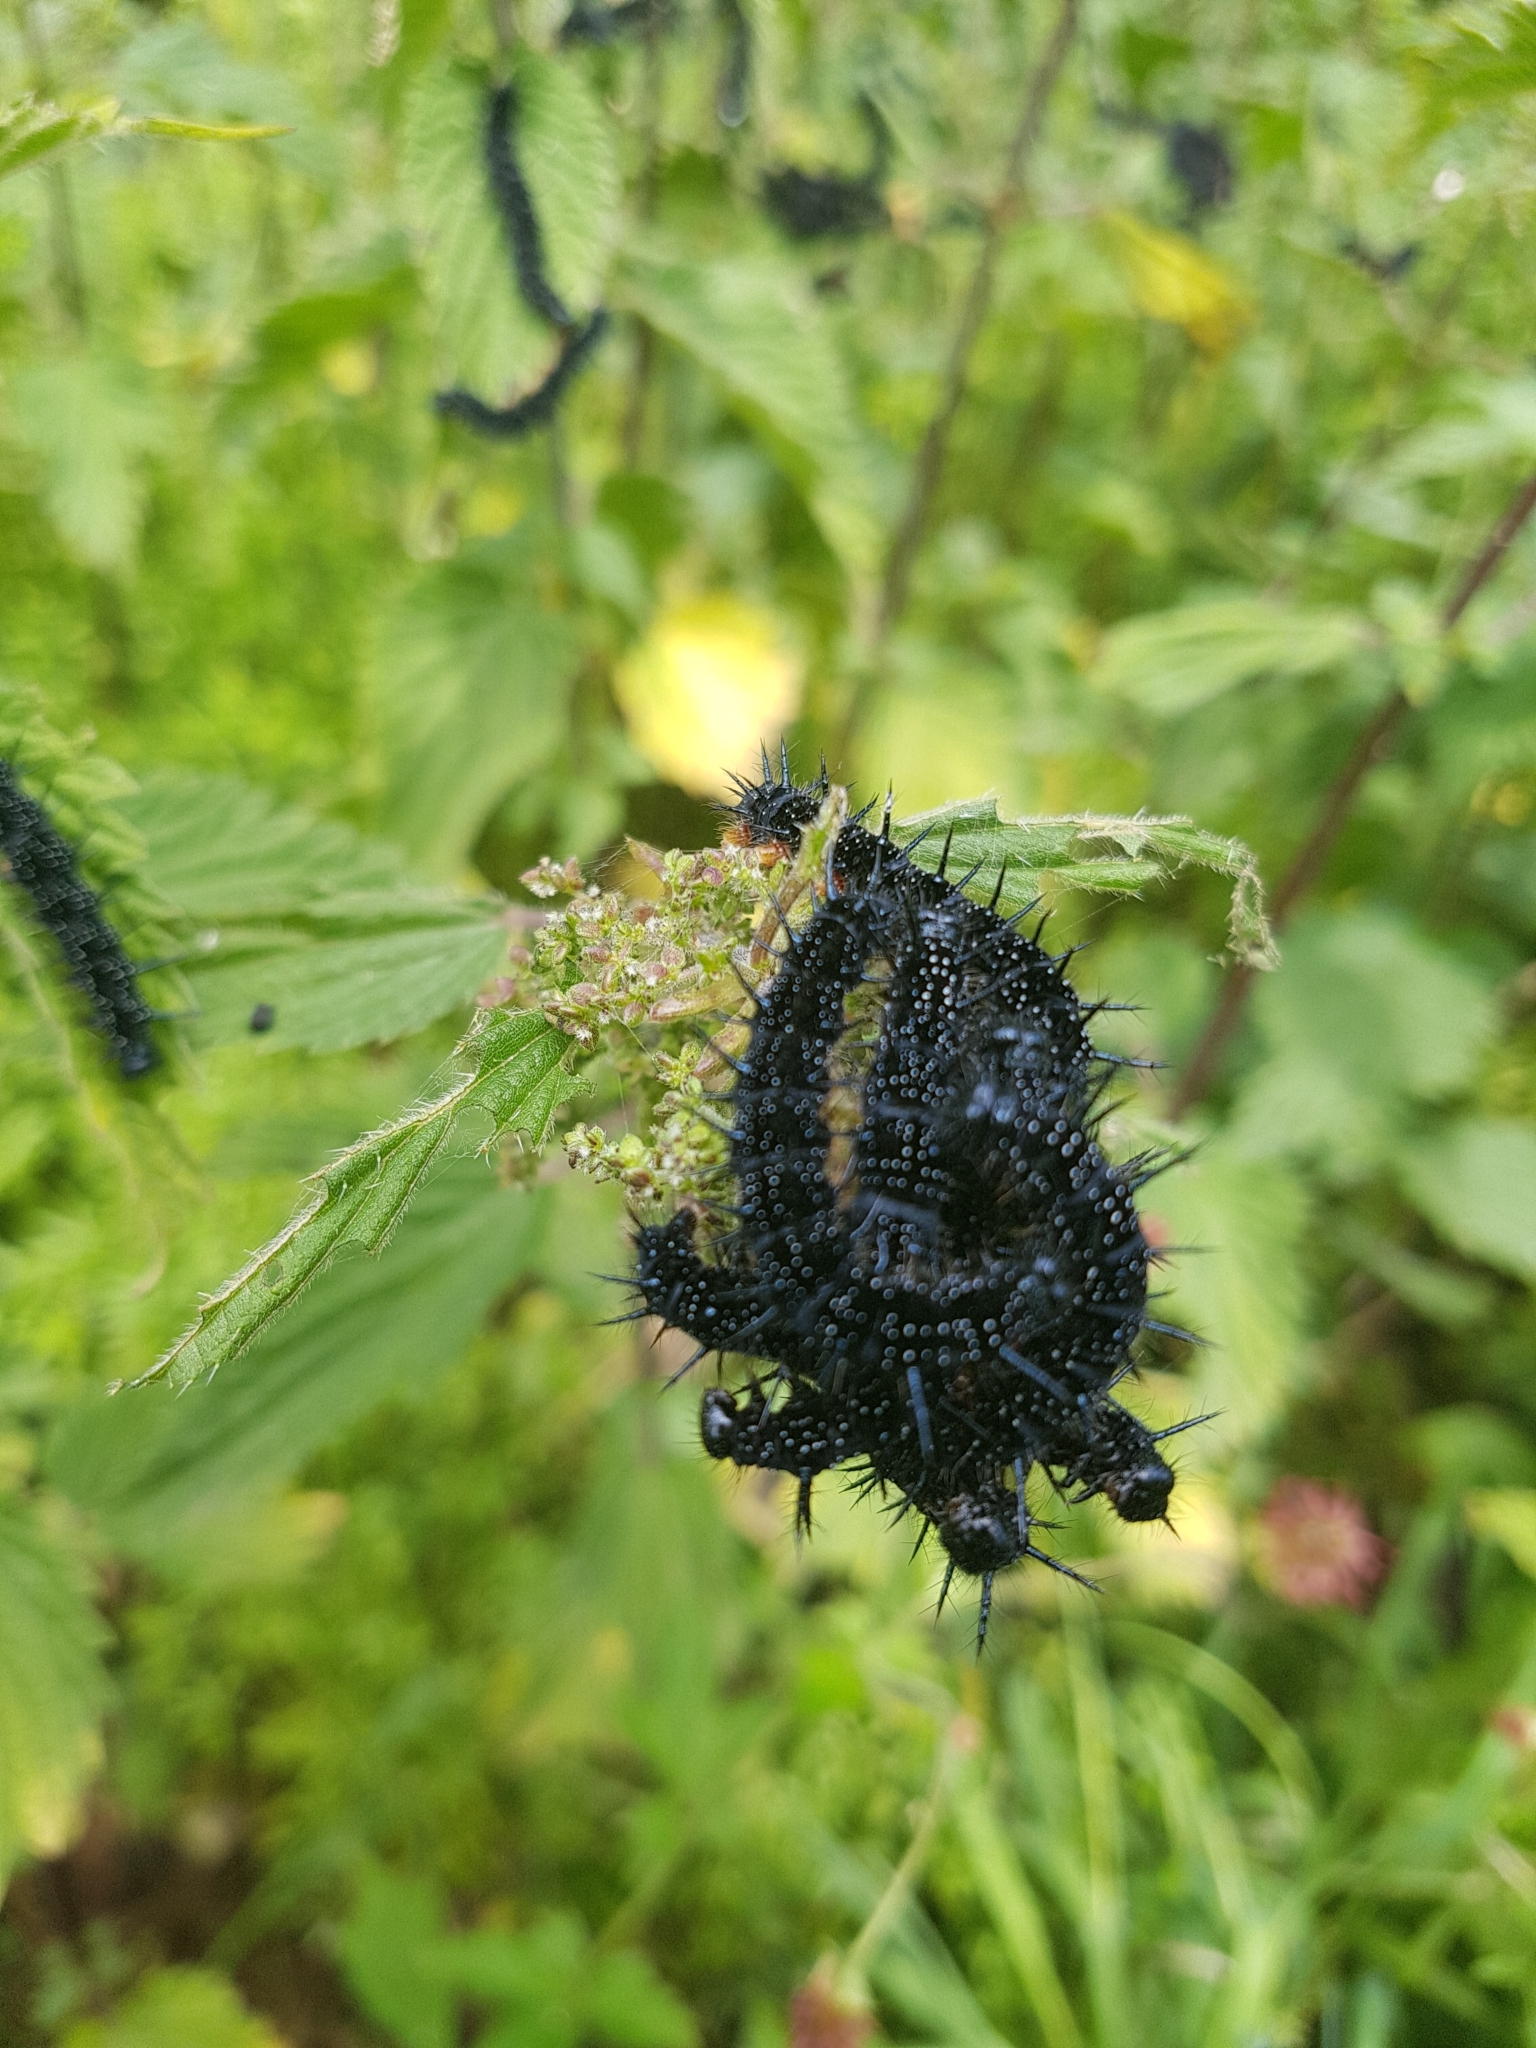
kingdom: Animalia
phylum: Arthropoda
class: Insecta
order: Lepidoptera
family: Nymphalidae
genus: Aglais
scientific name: Aglais io
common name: Peacock
